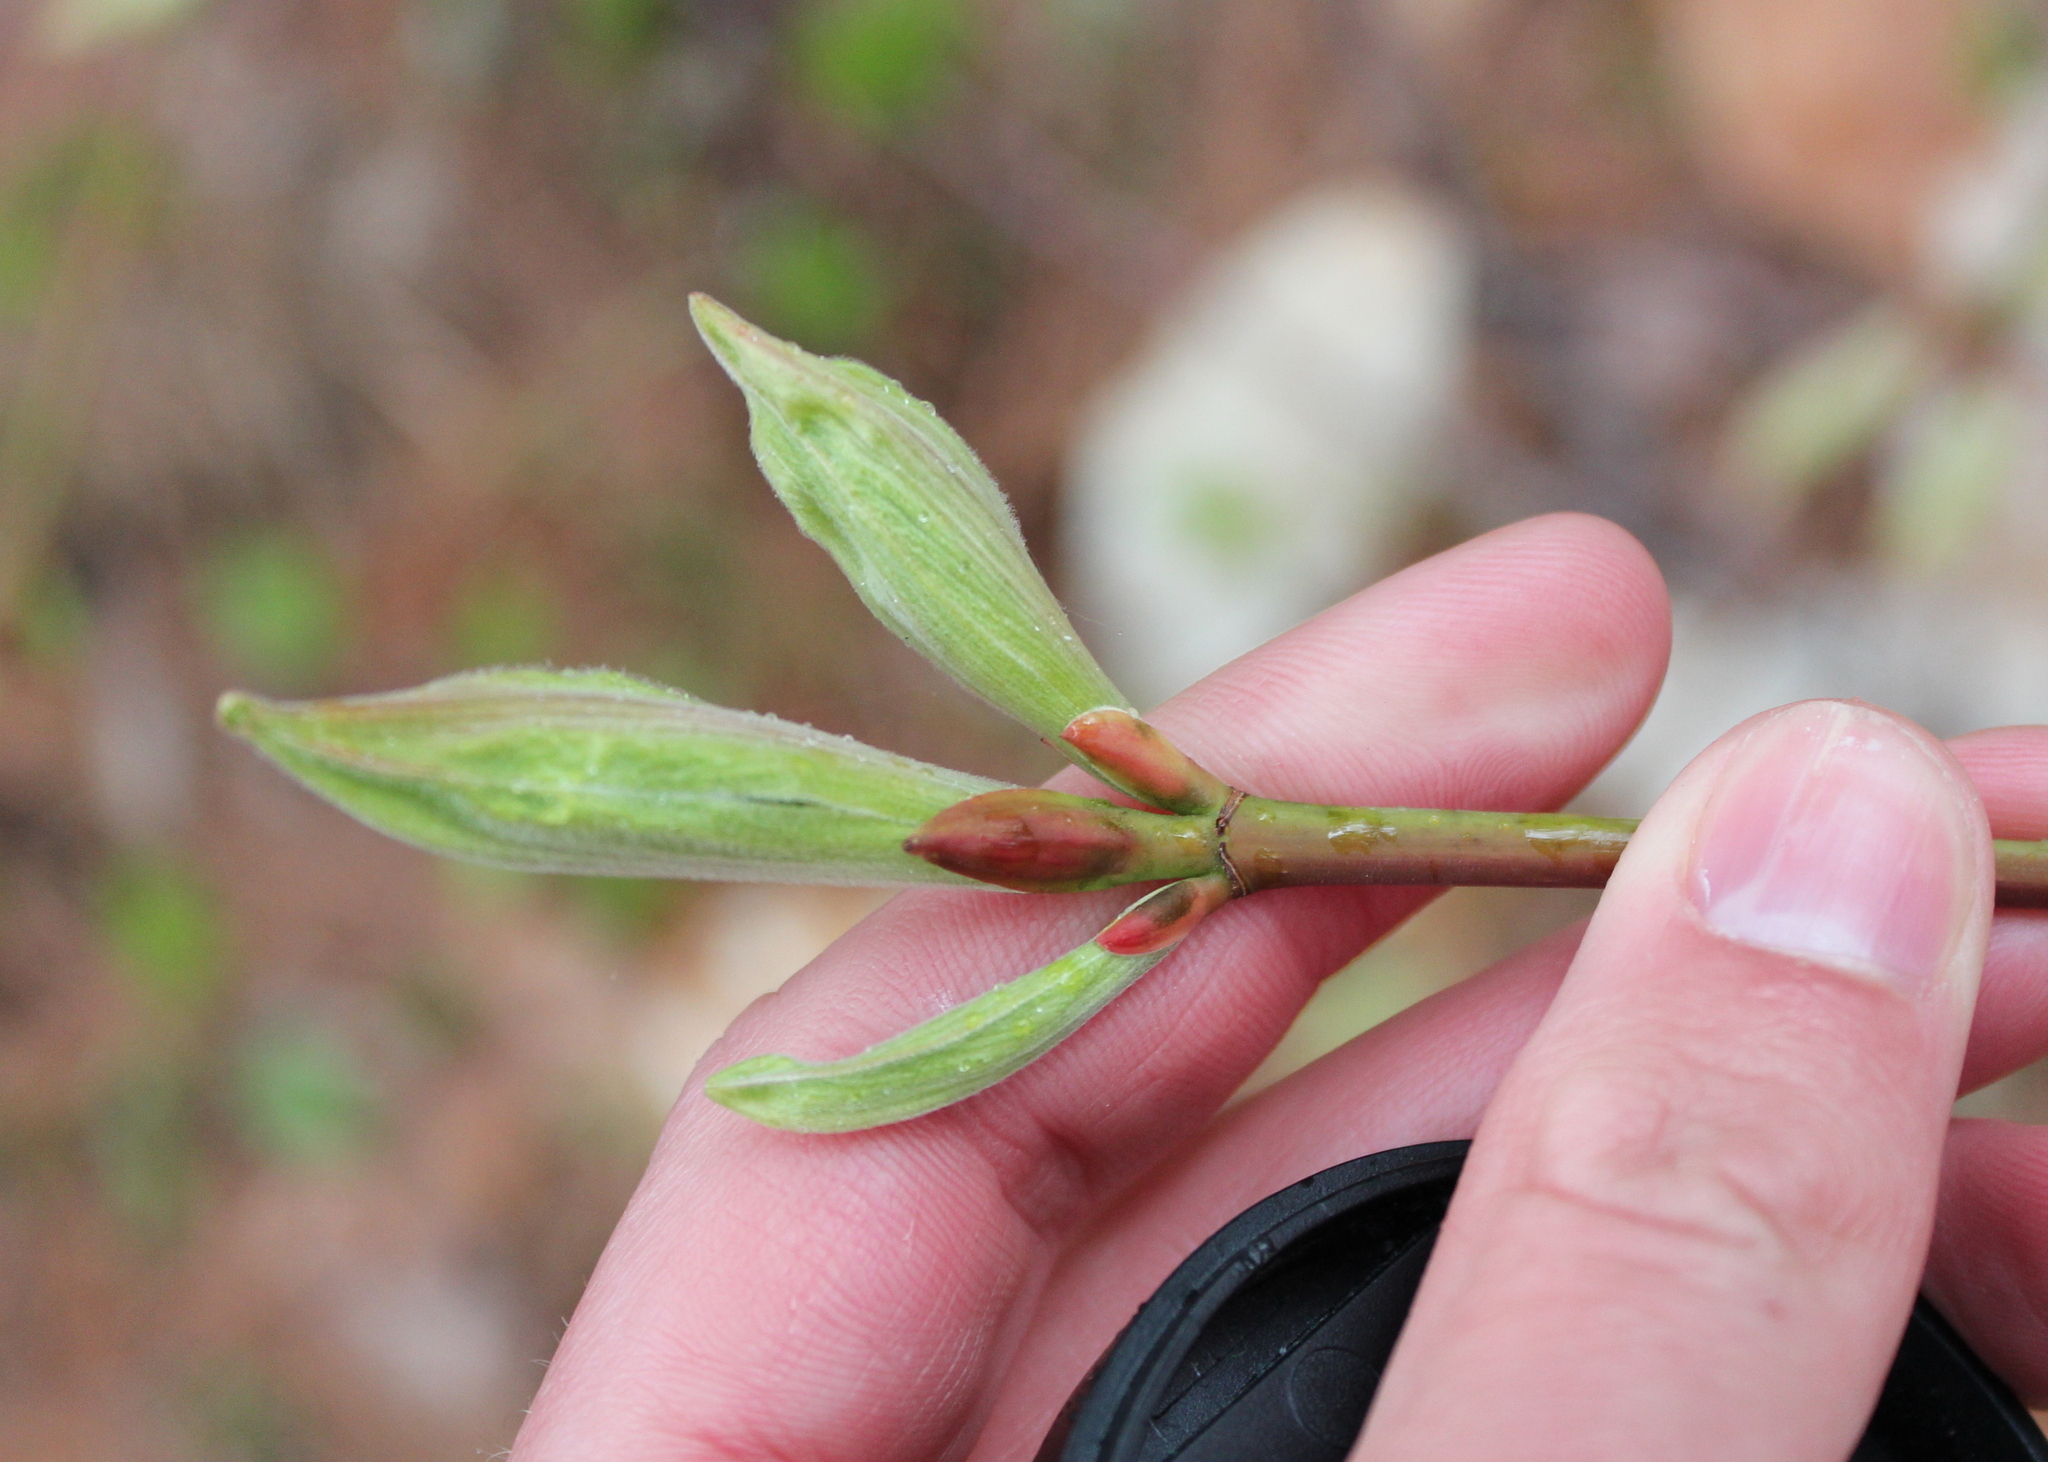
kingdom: Plantae
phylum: Tracheophyta
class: Magnoliopsida
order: Sapindales
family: Sapindaceae
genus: Acer
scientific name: Acer pensylvanicum
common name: Moosewood
